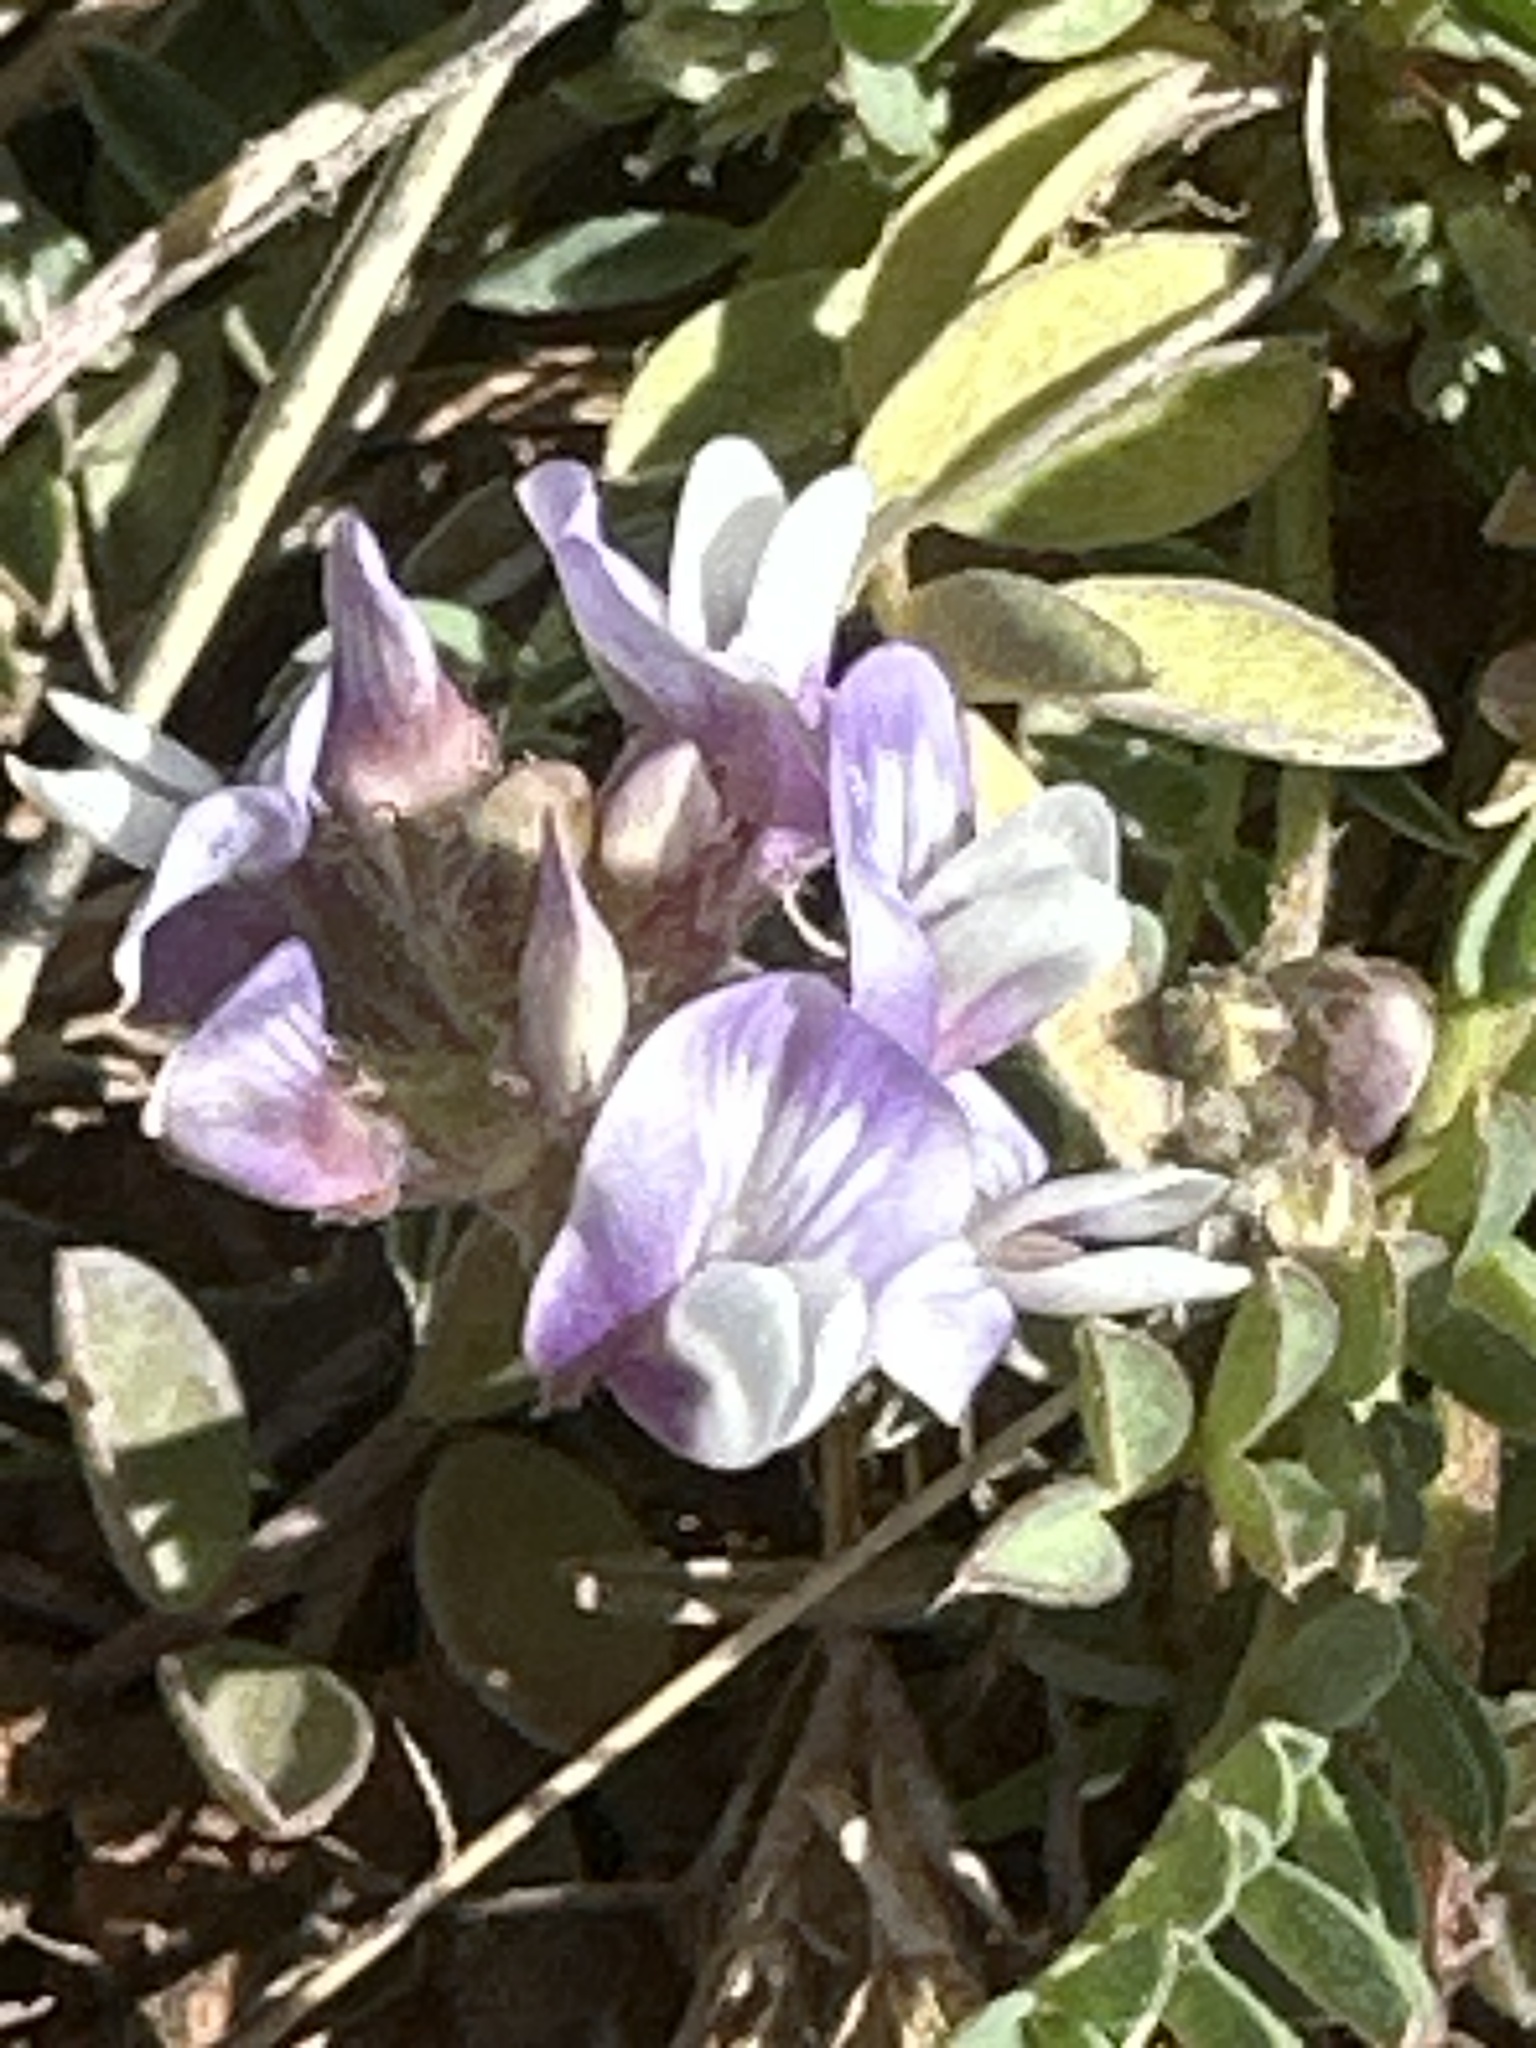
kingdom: Plantae
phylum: Tracheophyta
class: Magnoliopsida
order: Fabales
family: Fabaceae
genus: Astragalus
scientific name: Astragalus lotiflorus
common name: Lotus milk-vetch
